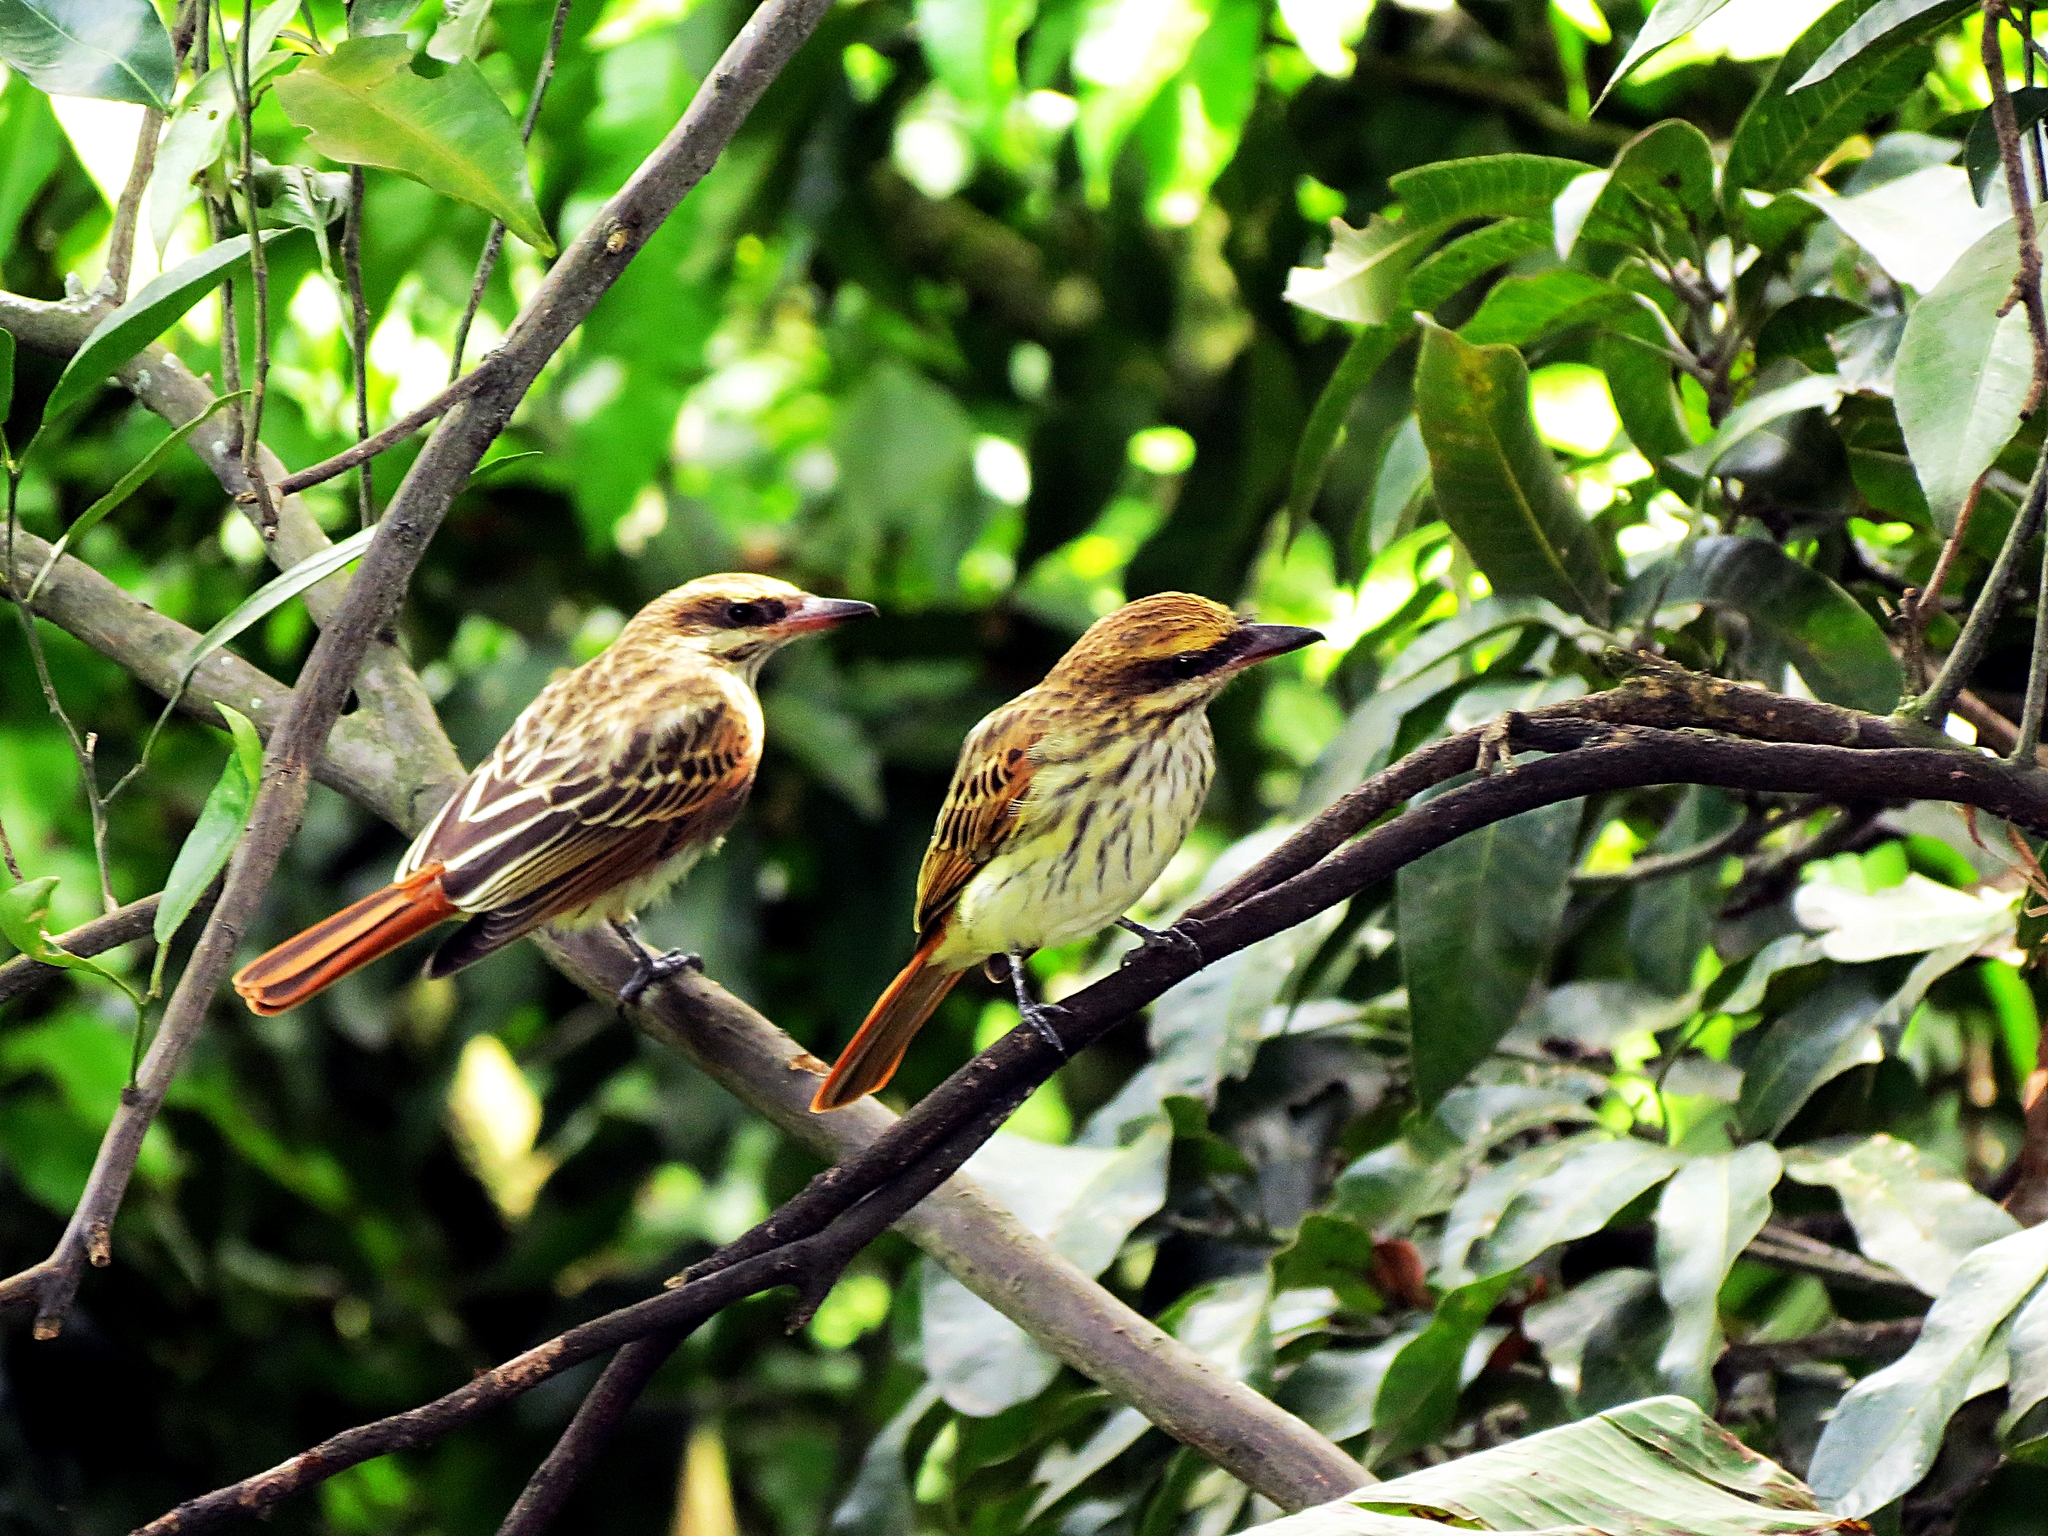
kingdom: Animalia
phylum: Chordata
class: Aves
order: Passeriformes
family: Tyrannidae
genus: Myiodynastes
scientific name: Myiodynastes maculatus
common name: Streaked flycatcher
